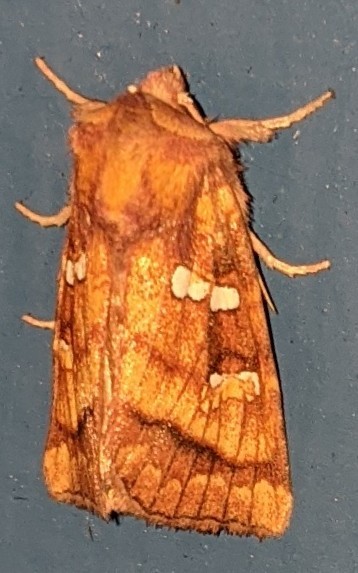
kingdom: Animalia
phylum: Arthropoda
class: Insecta
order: Lepidoptera
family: Noctuidae
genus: Papaipema
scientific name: Papaipema pterisii
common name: Bracken borer moth
